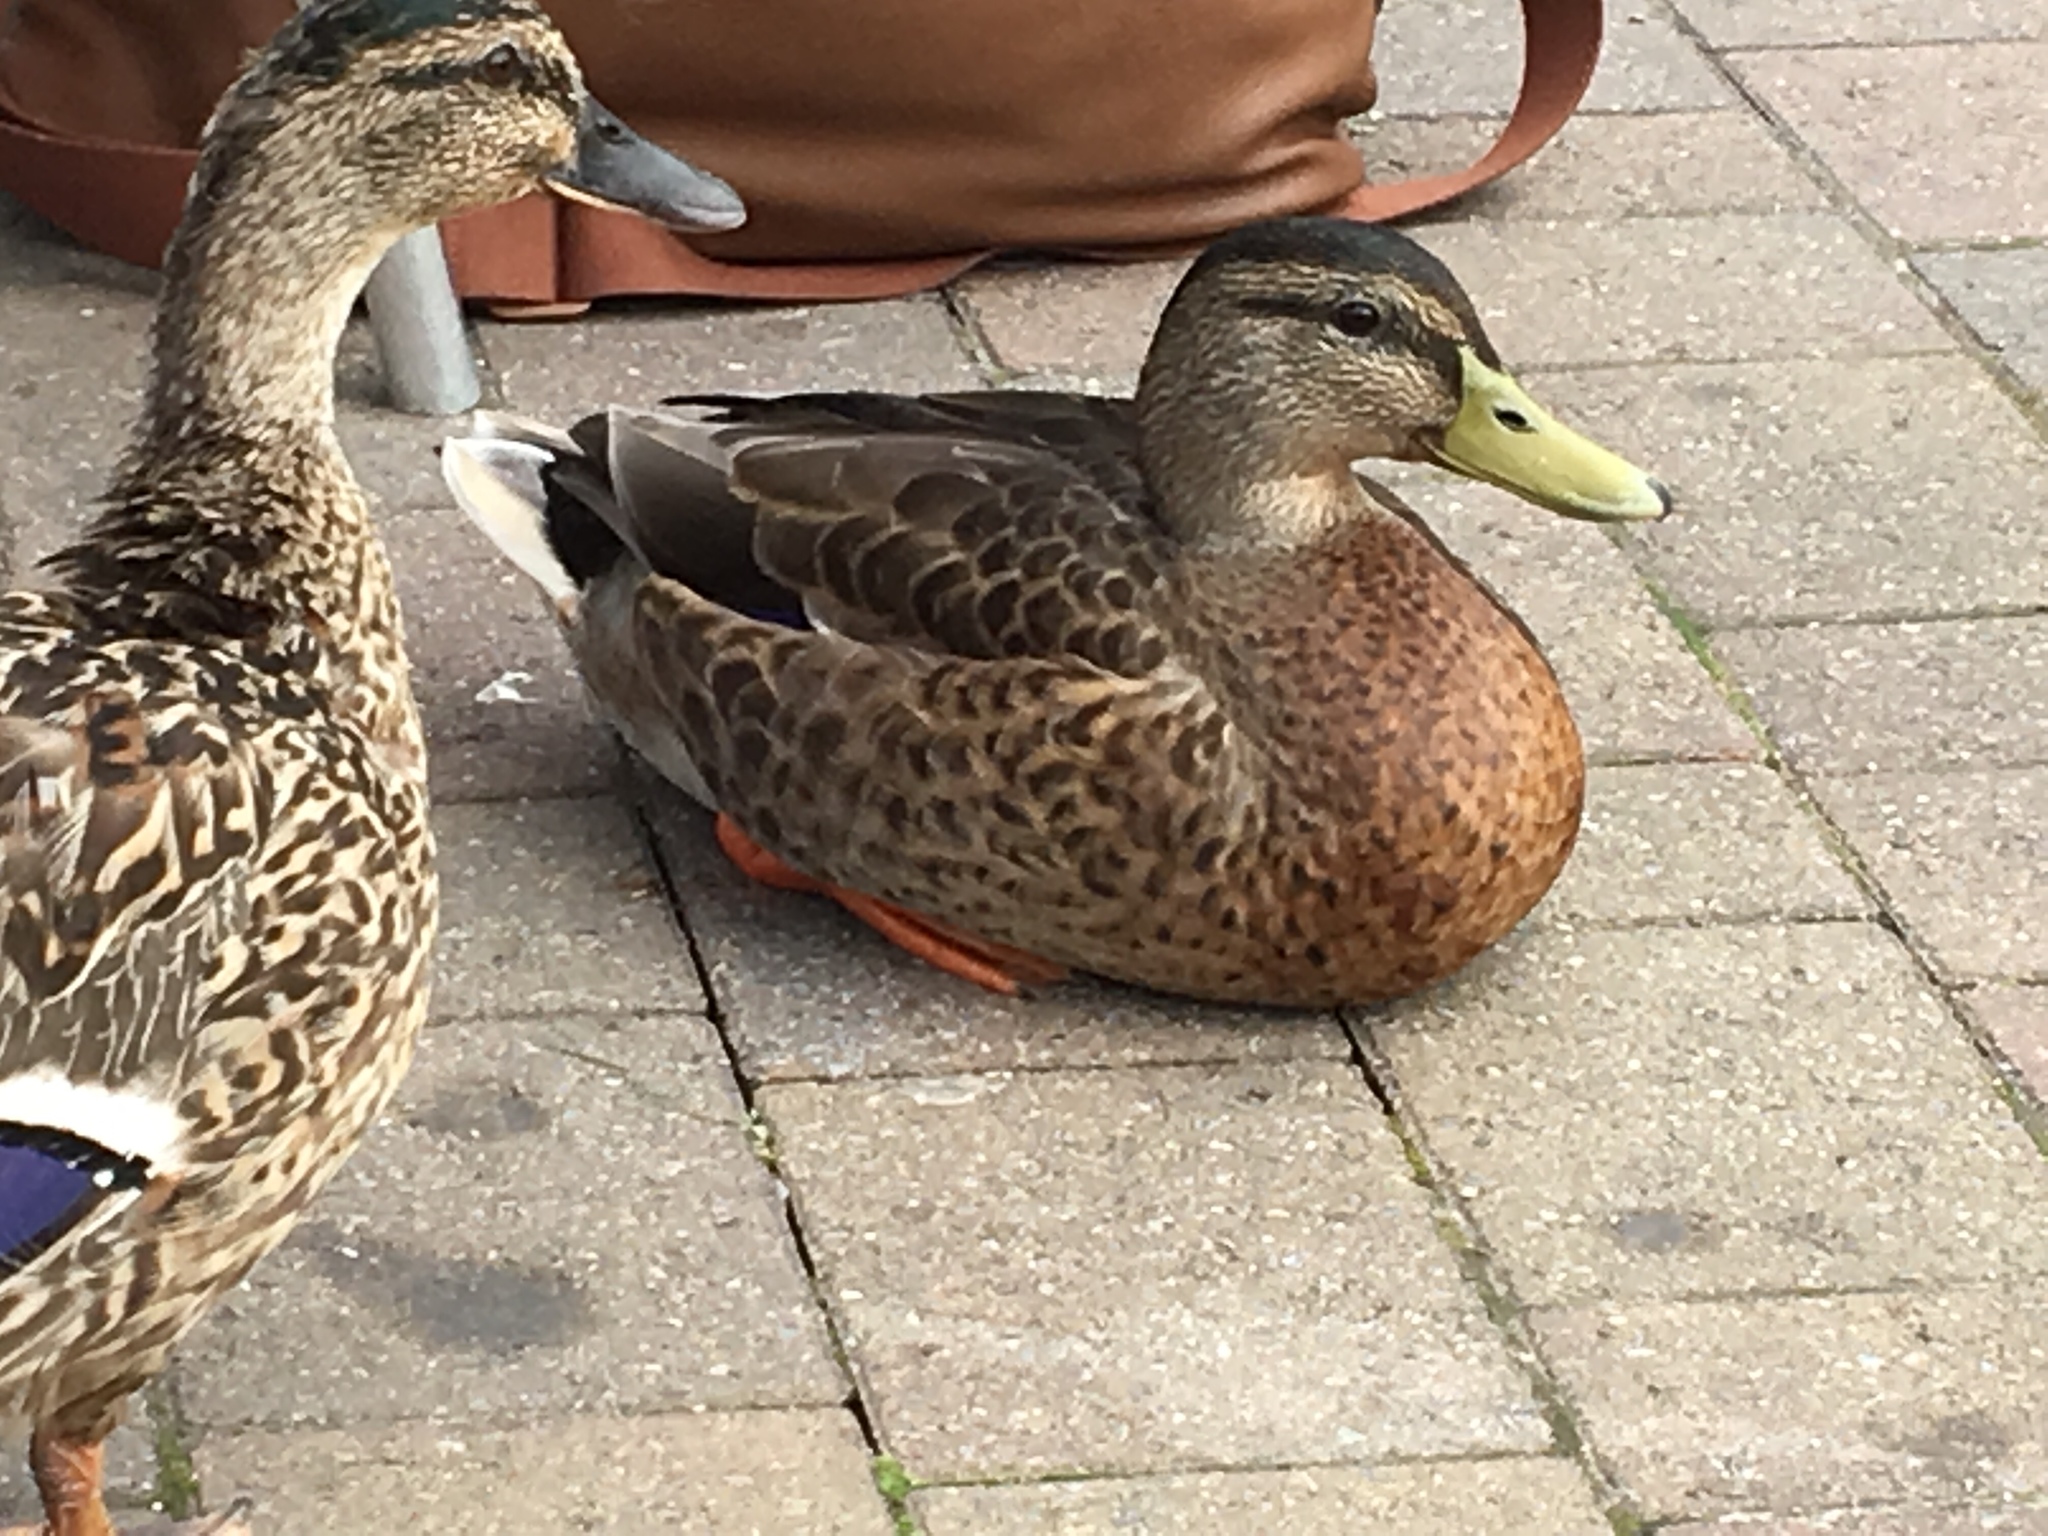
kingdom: Animalia
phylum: Chordata
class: Aves
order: Anseriformes
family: Anatidae
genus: Anas
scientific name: Anas platyrhynchos
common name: Mallard
